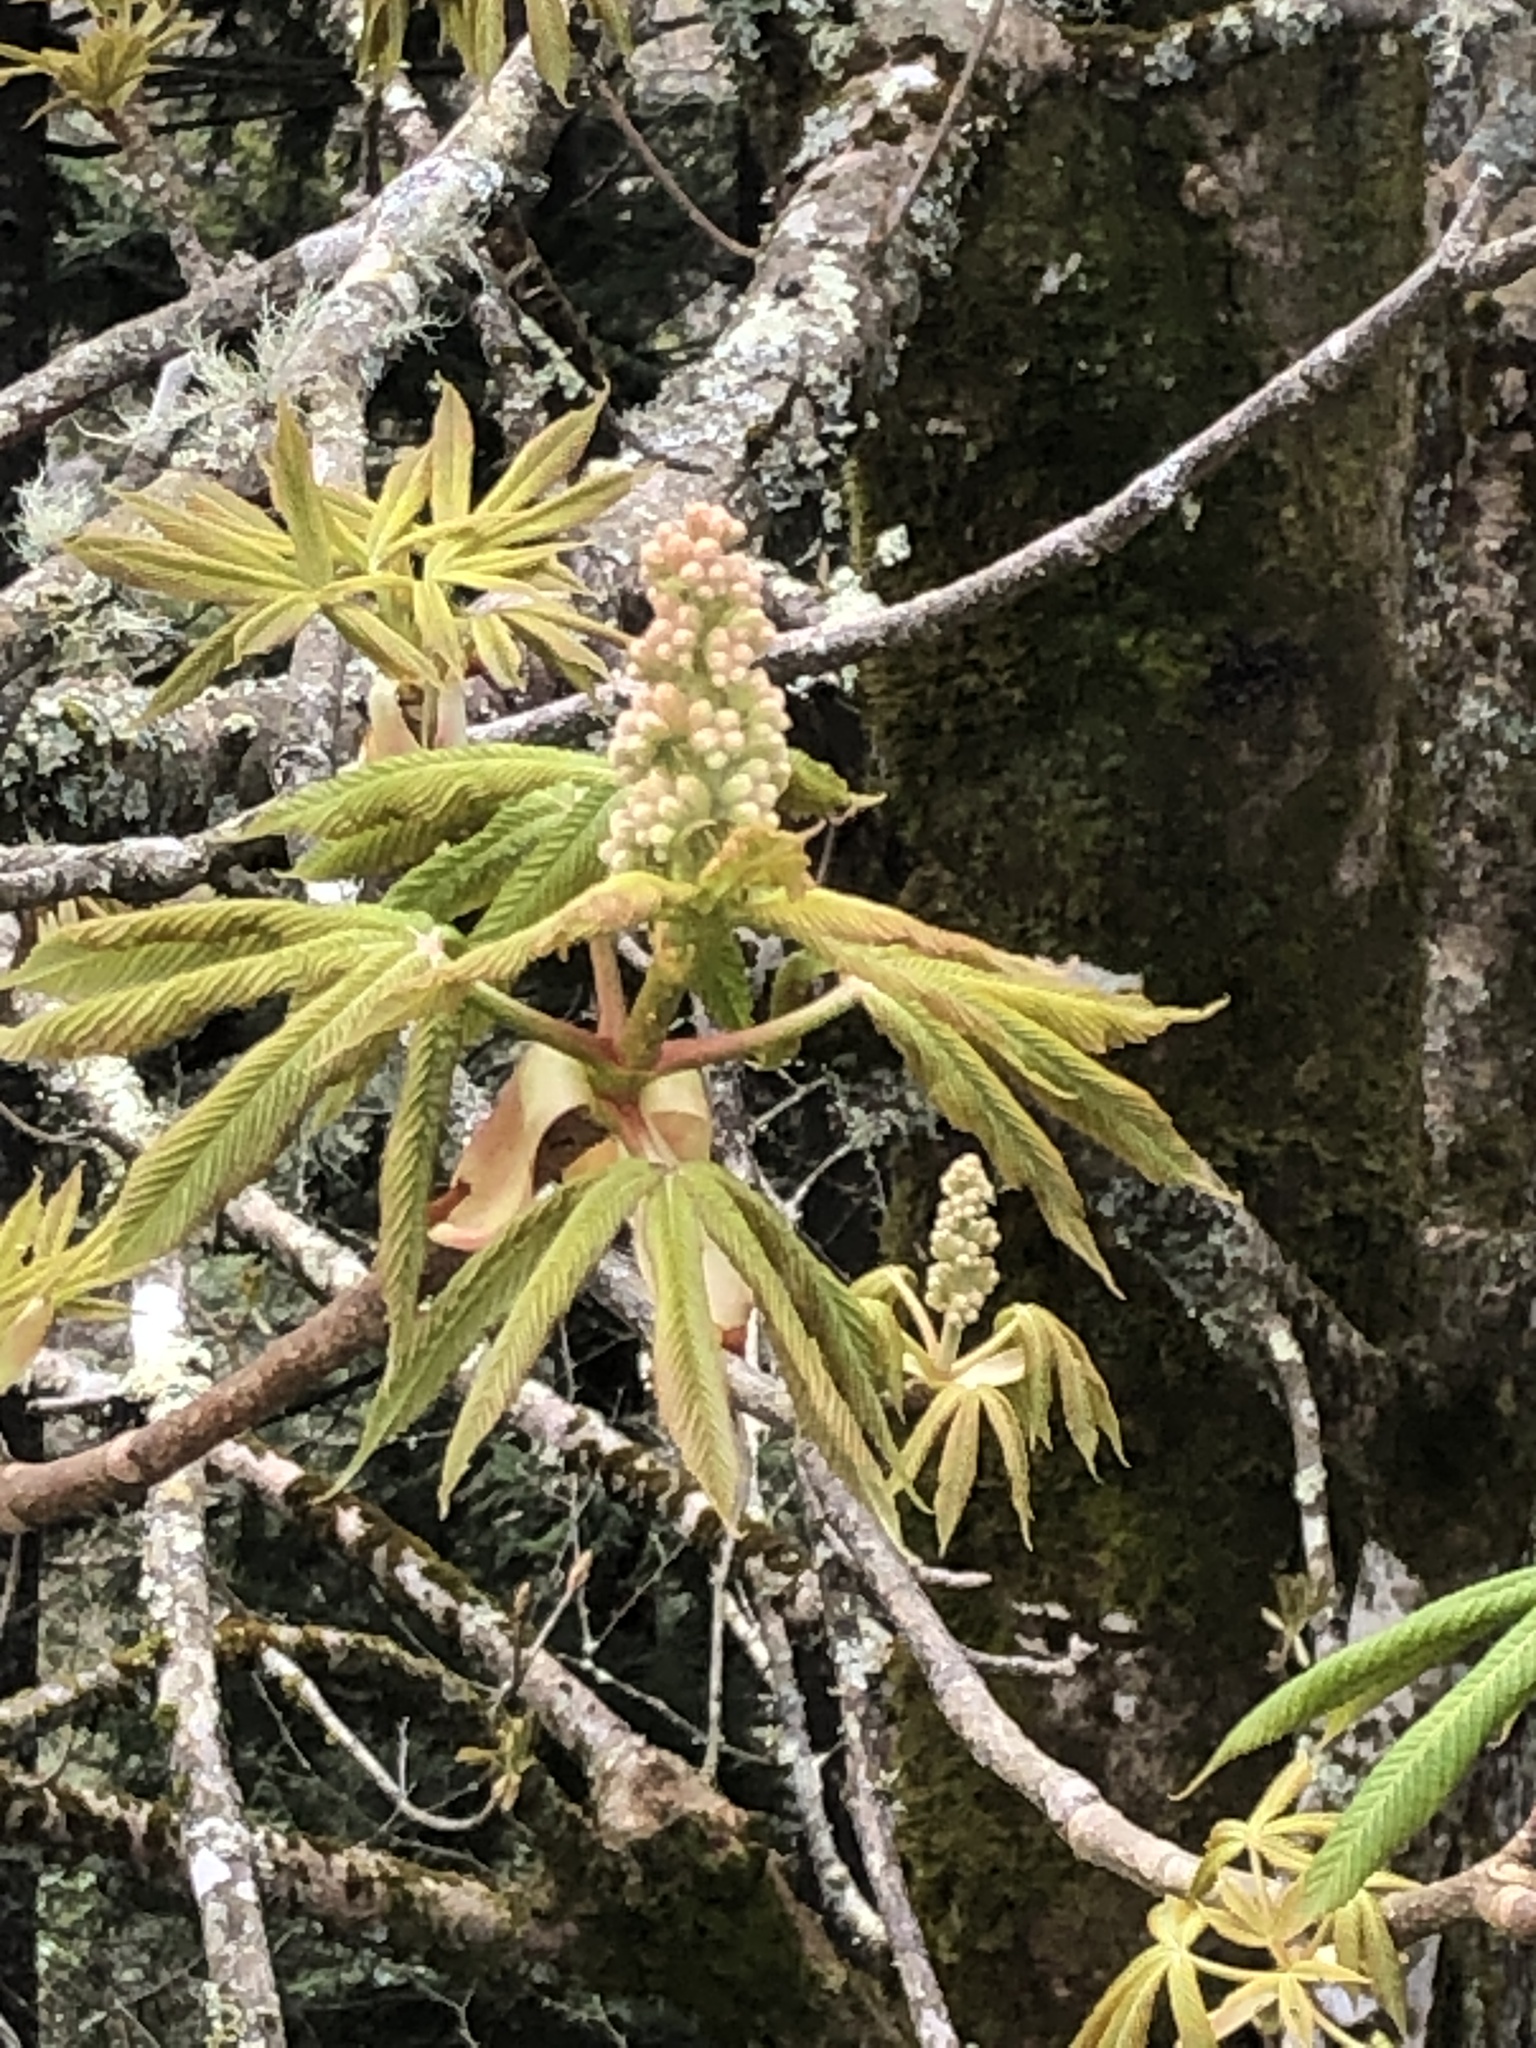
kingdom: Plantae
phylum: Tracheophyta
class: Magnoliopsida
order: Sapindales
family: Sapindaceae
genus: Aesculus
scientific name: Aesculus flava
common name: Yellow buckeye
